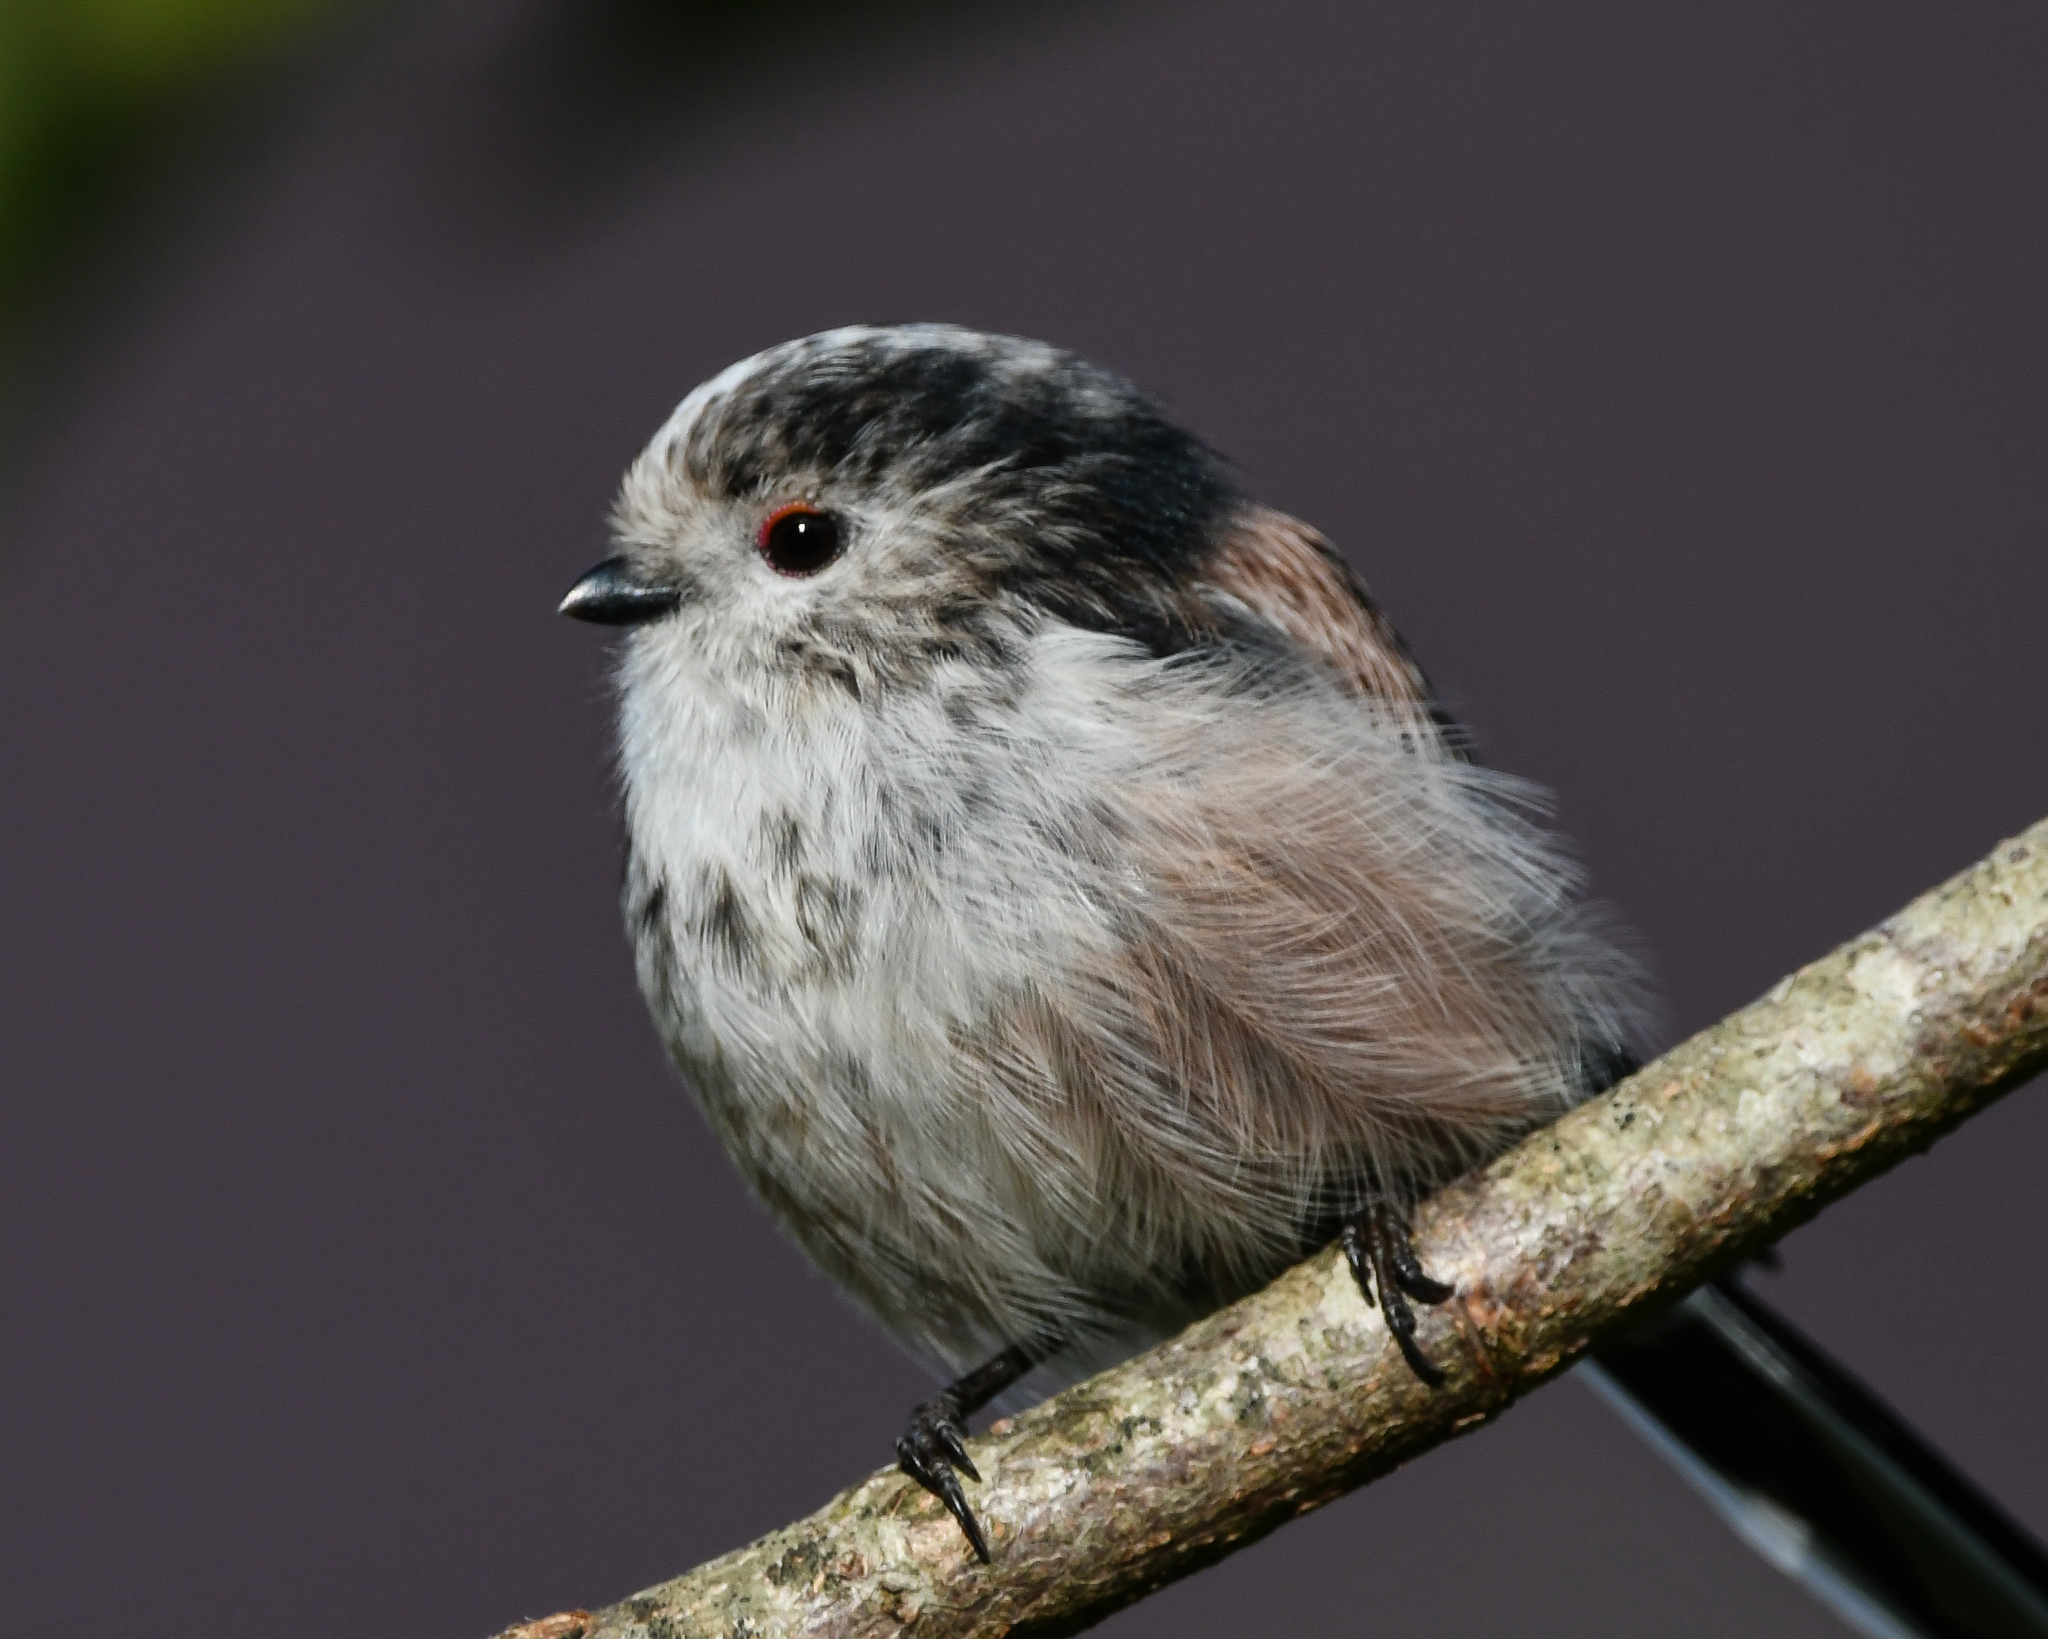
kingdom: Animalia
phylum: Chordata
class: Aves
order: Passeriformes
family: Aegithalidae
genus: Aegithalos
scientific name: Aegithalos caudatus
